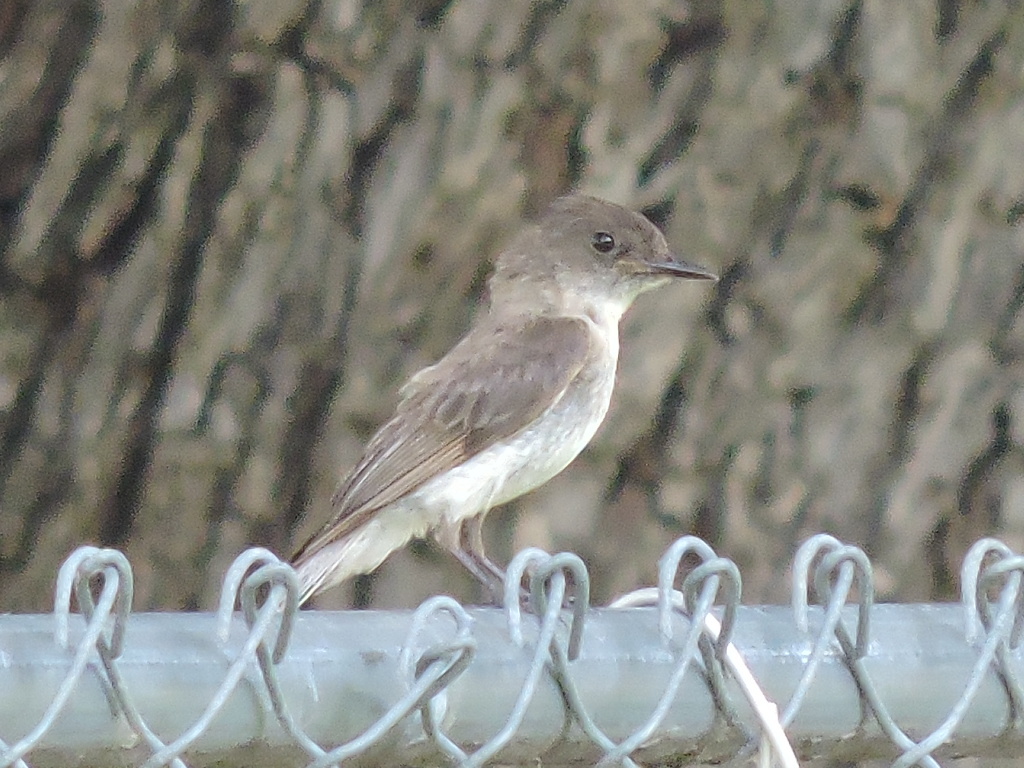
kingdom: Animalia
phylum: Chordata
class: Aves
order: Passeriformes
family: Tyrannidae
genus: Sayornis
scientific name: Sayornis phoebe
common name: Eastern phoebe
